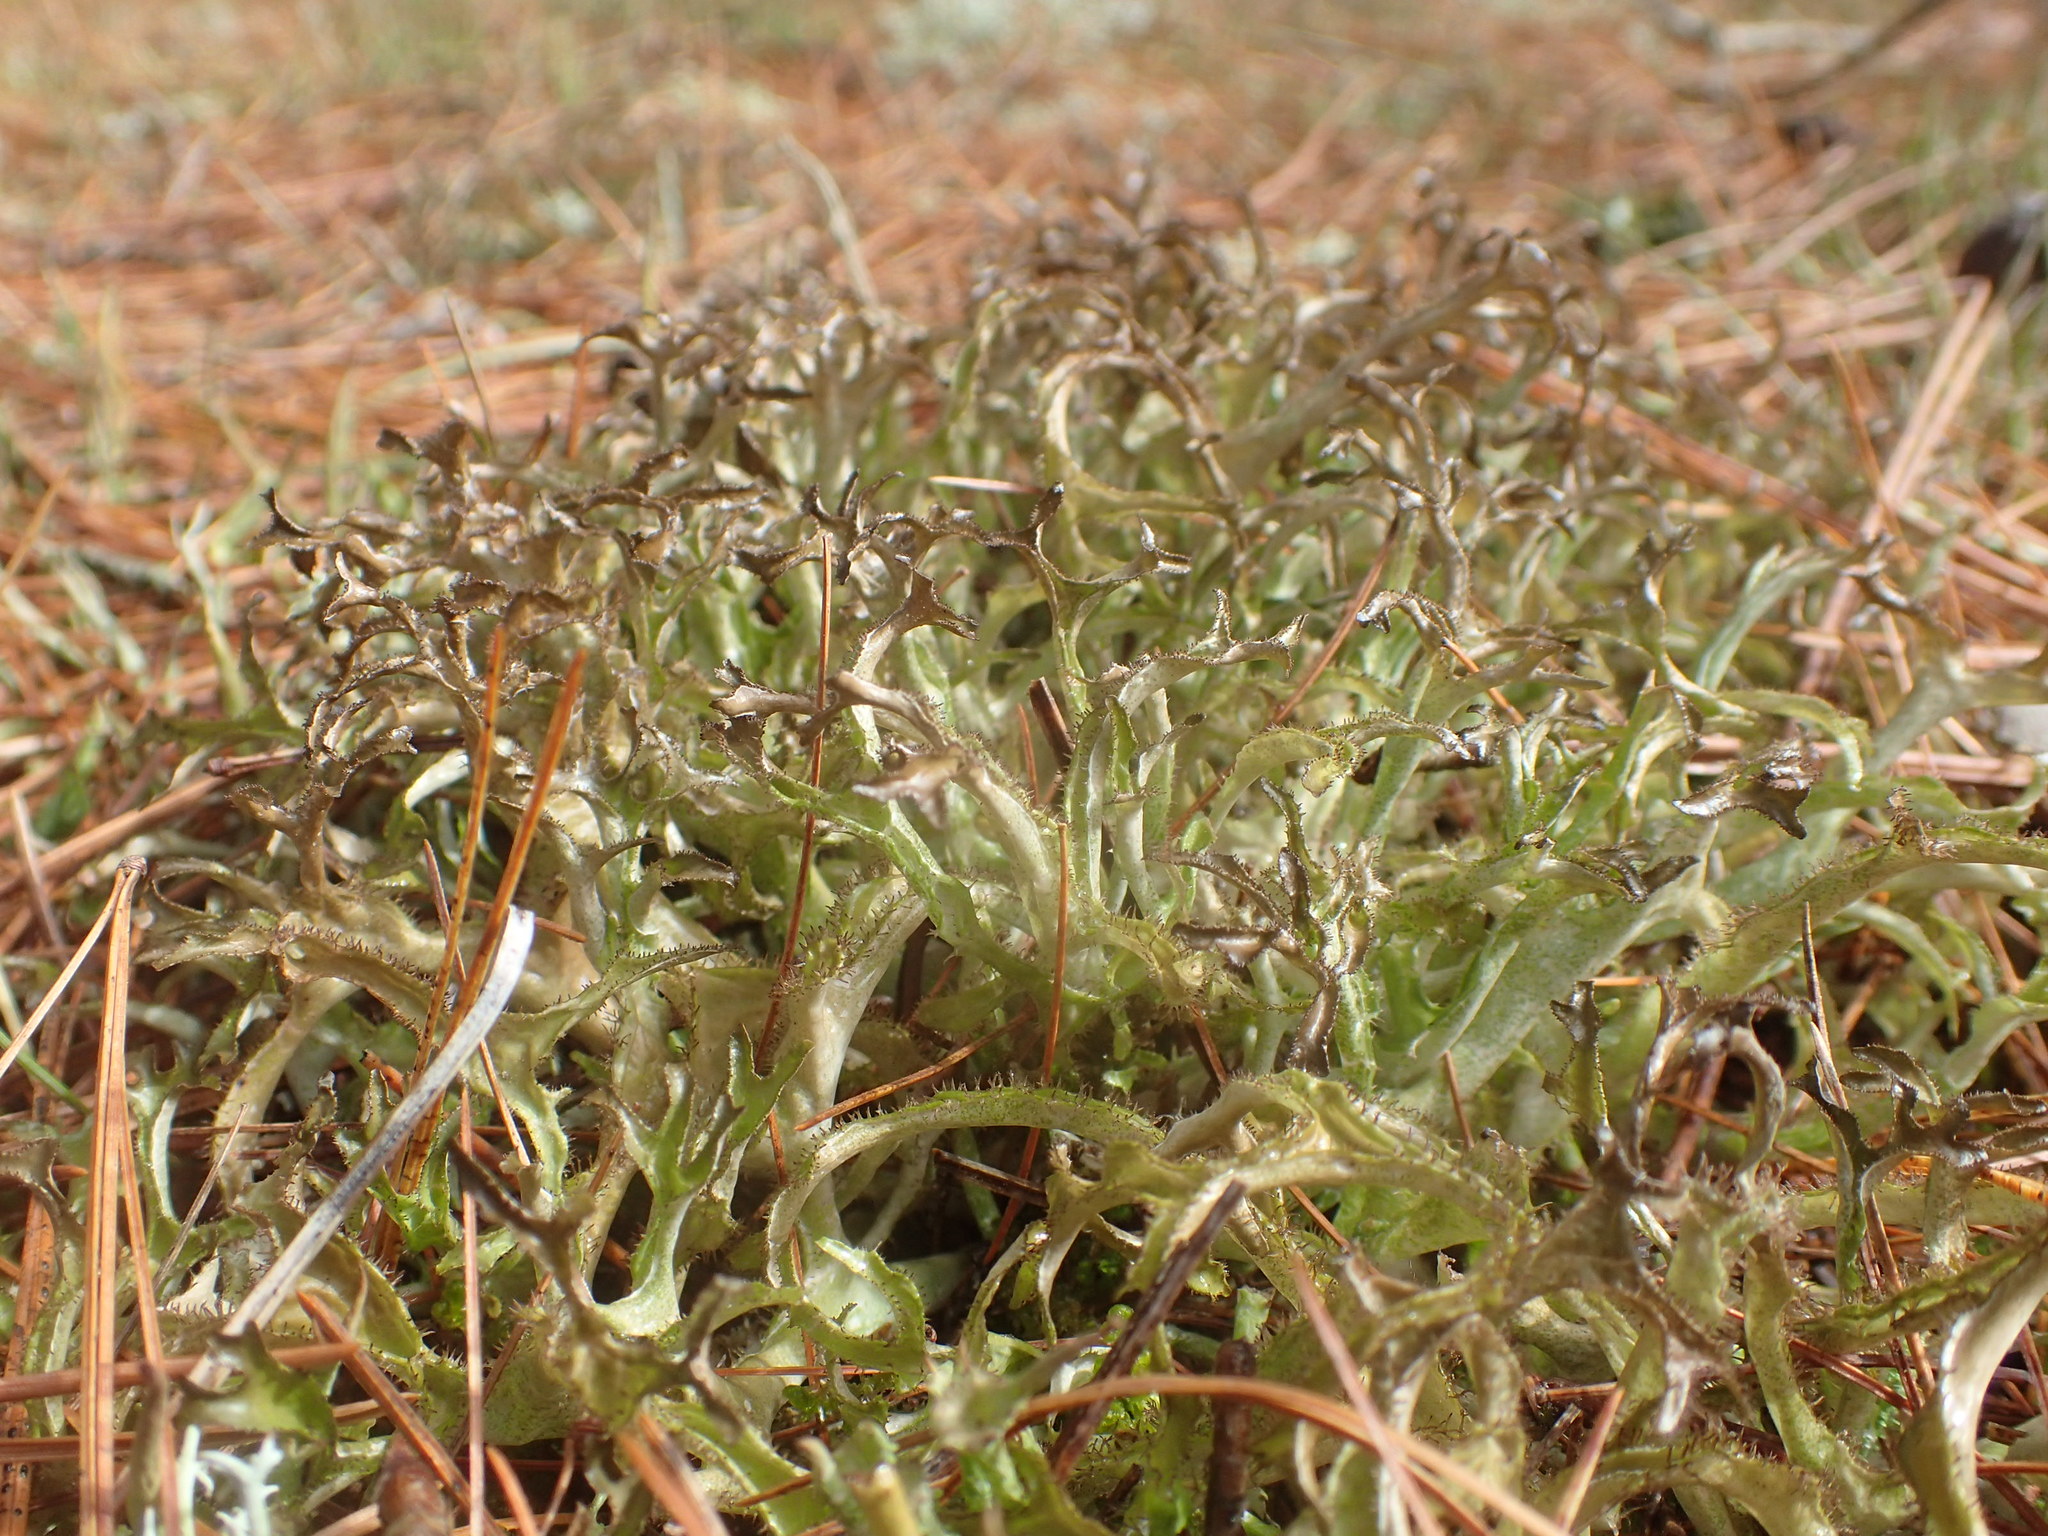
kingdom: Fungi
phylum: Ascomycota
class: Lecanoromycetes
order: Lecanorales
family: Parmeliaceae
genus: Cetraria
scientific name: Cetraria arenaria
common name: Sand-loving iceland lichen
